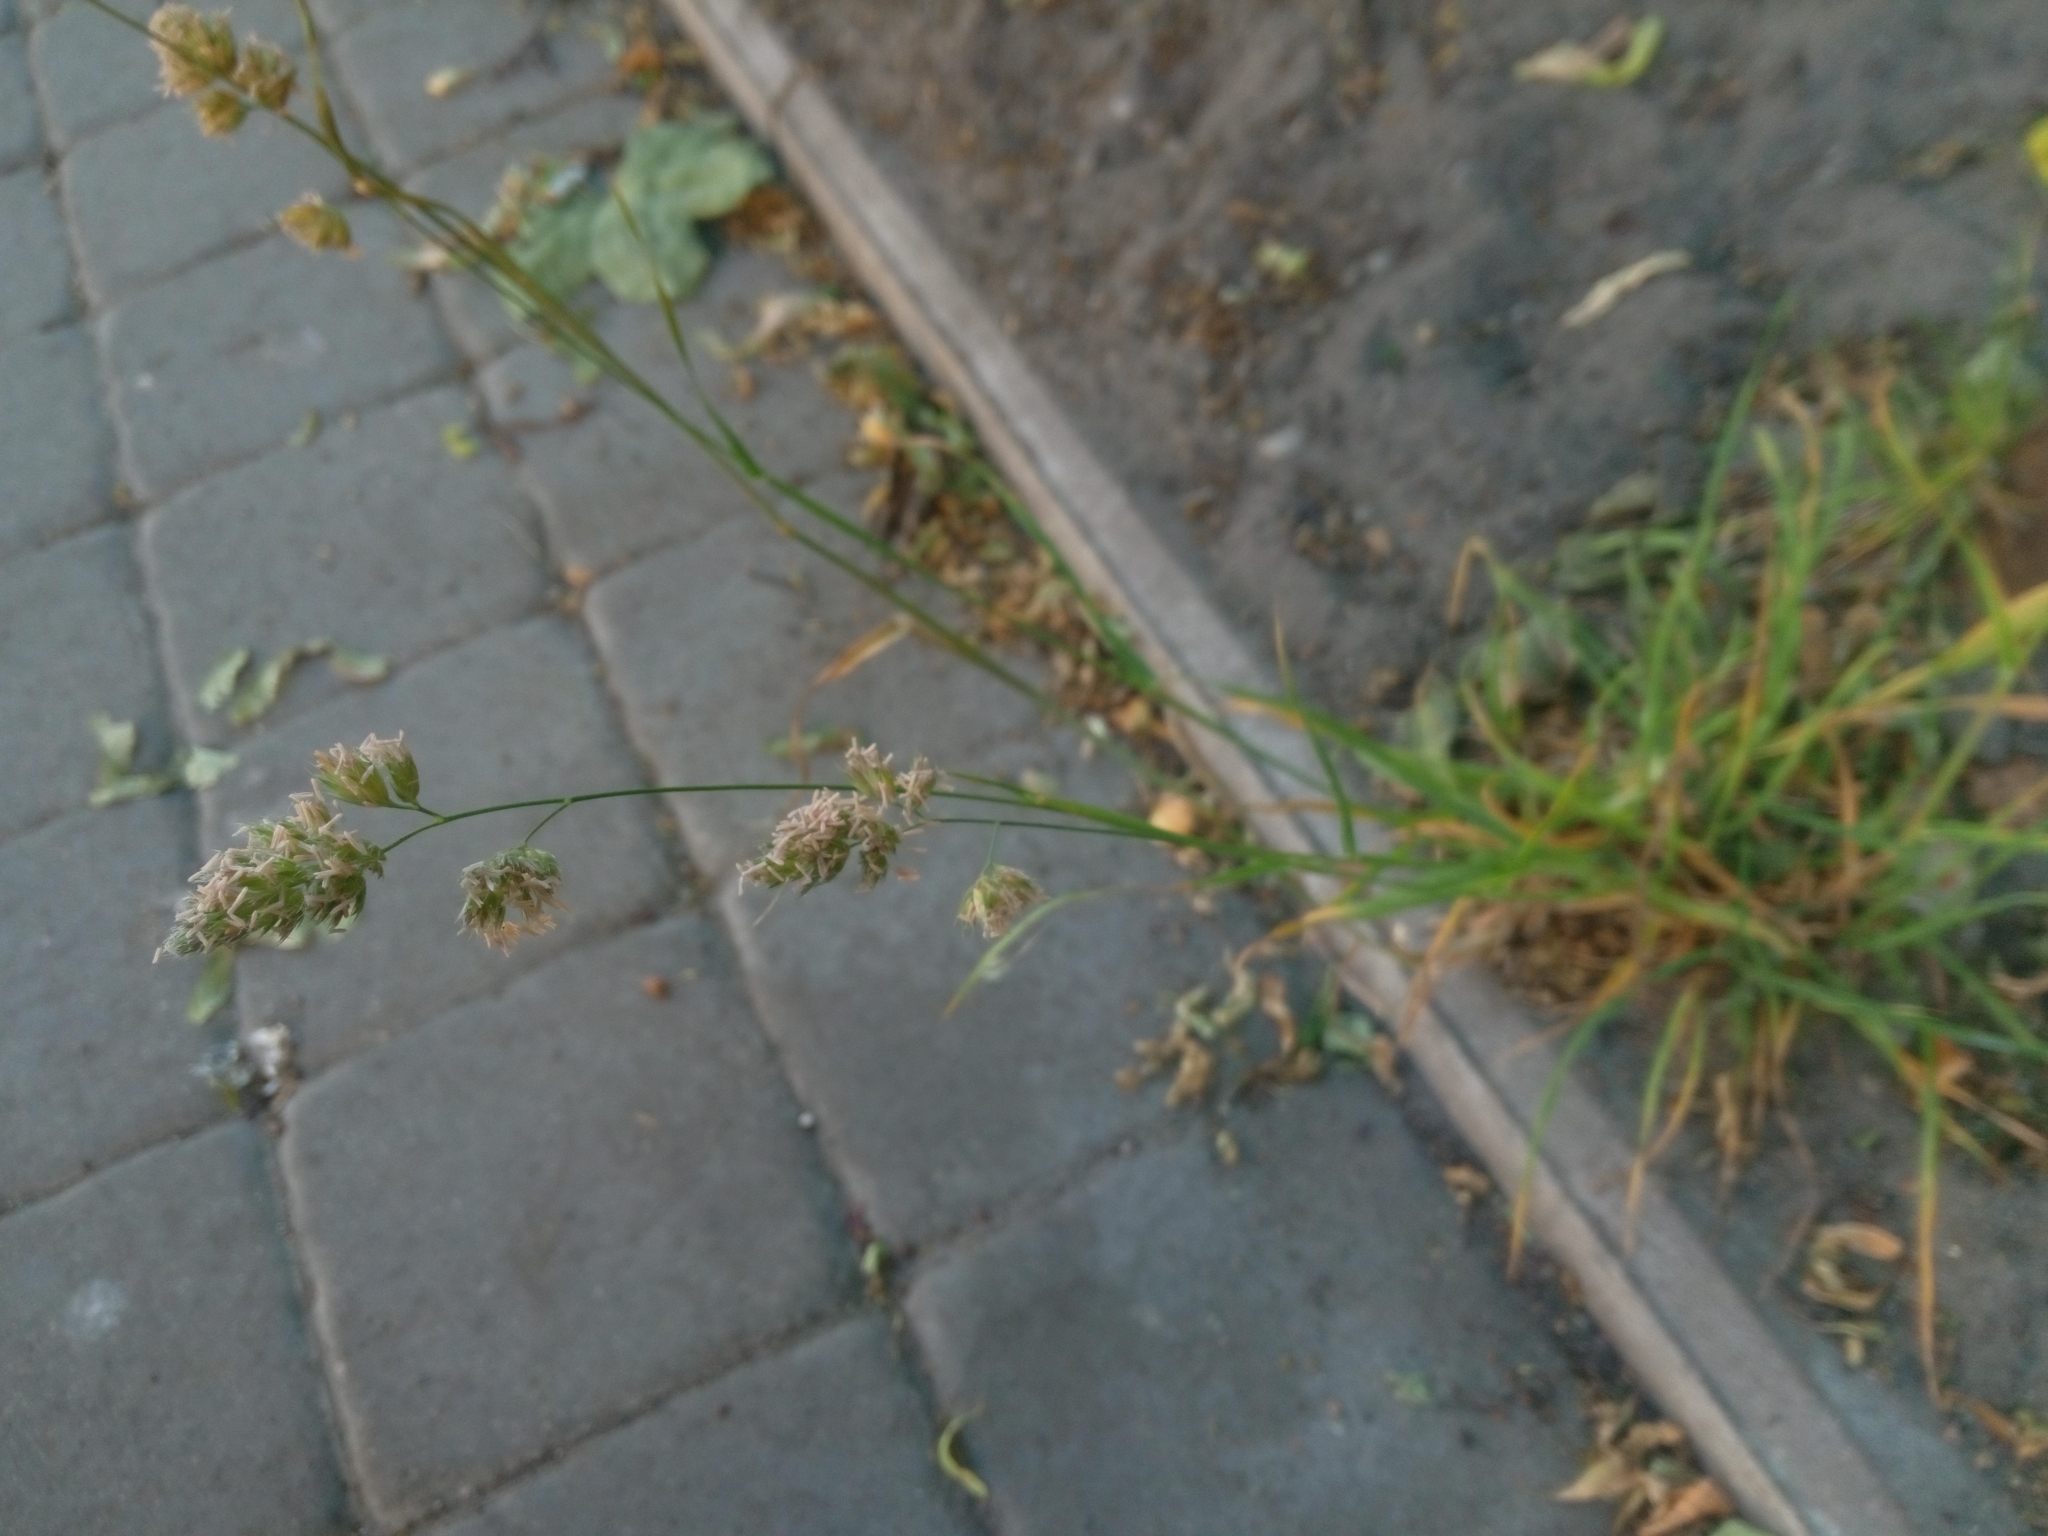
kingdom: Plantae
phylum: Tracheophyta
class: Liliopsida
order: Poales
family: Poaceae
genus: Dactylis
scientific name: Dactylis glomerata
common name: Orchardgrass
